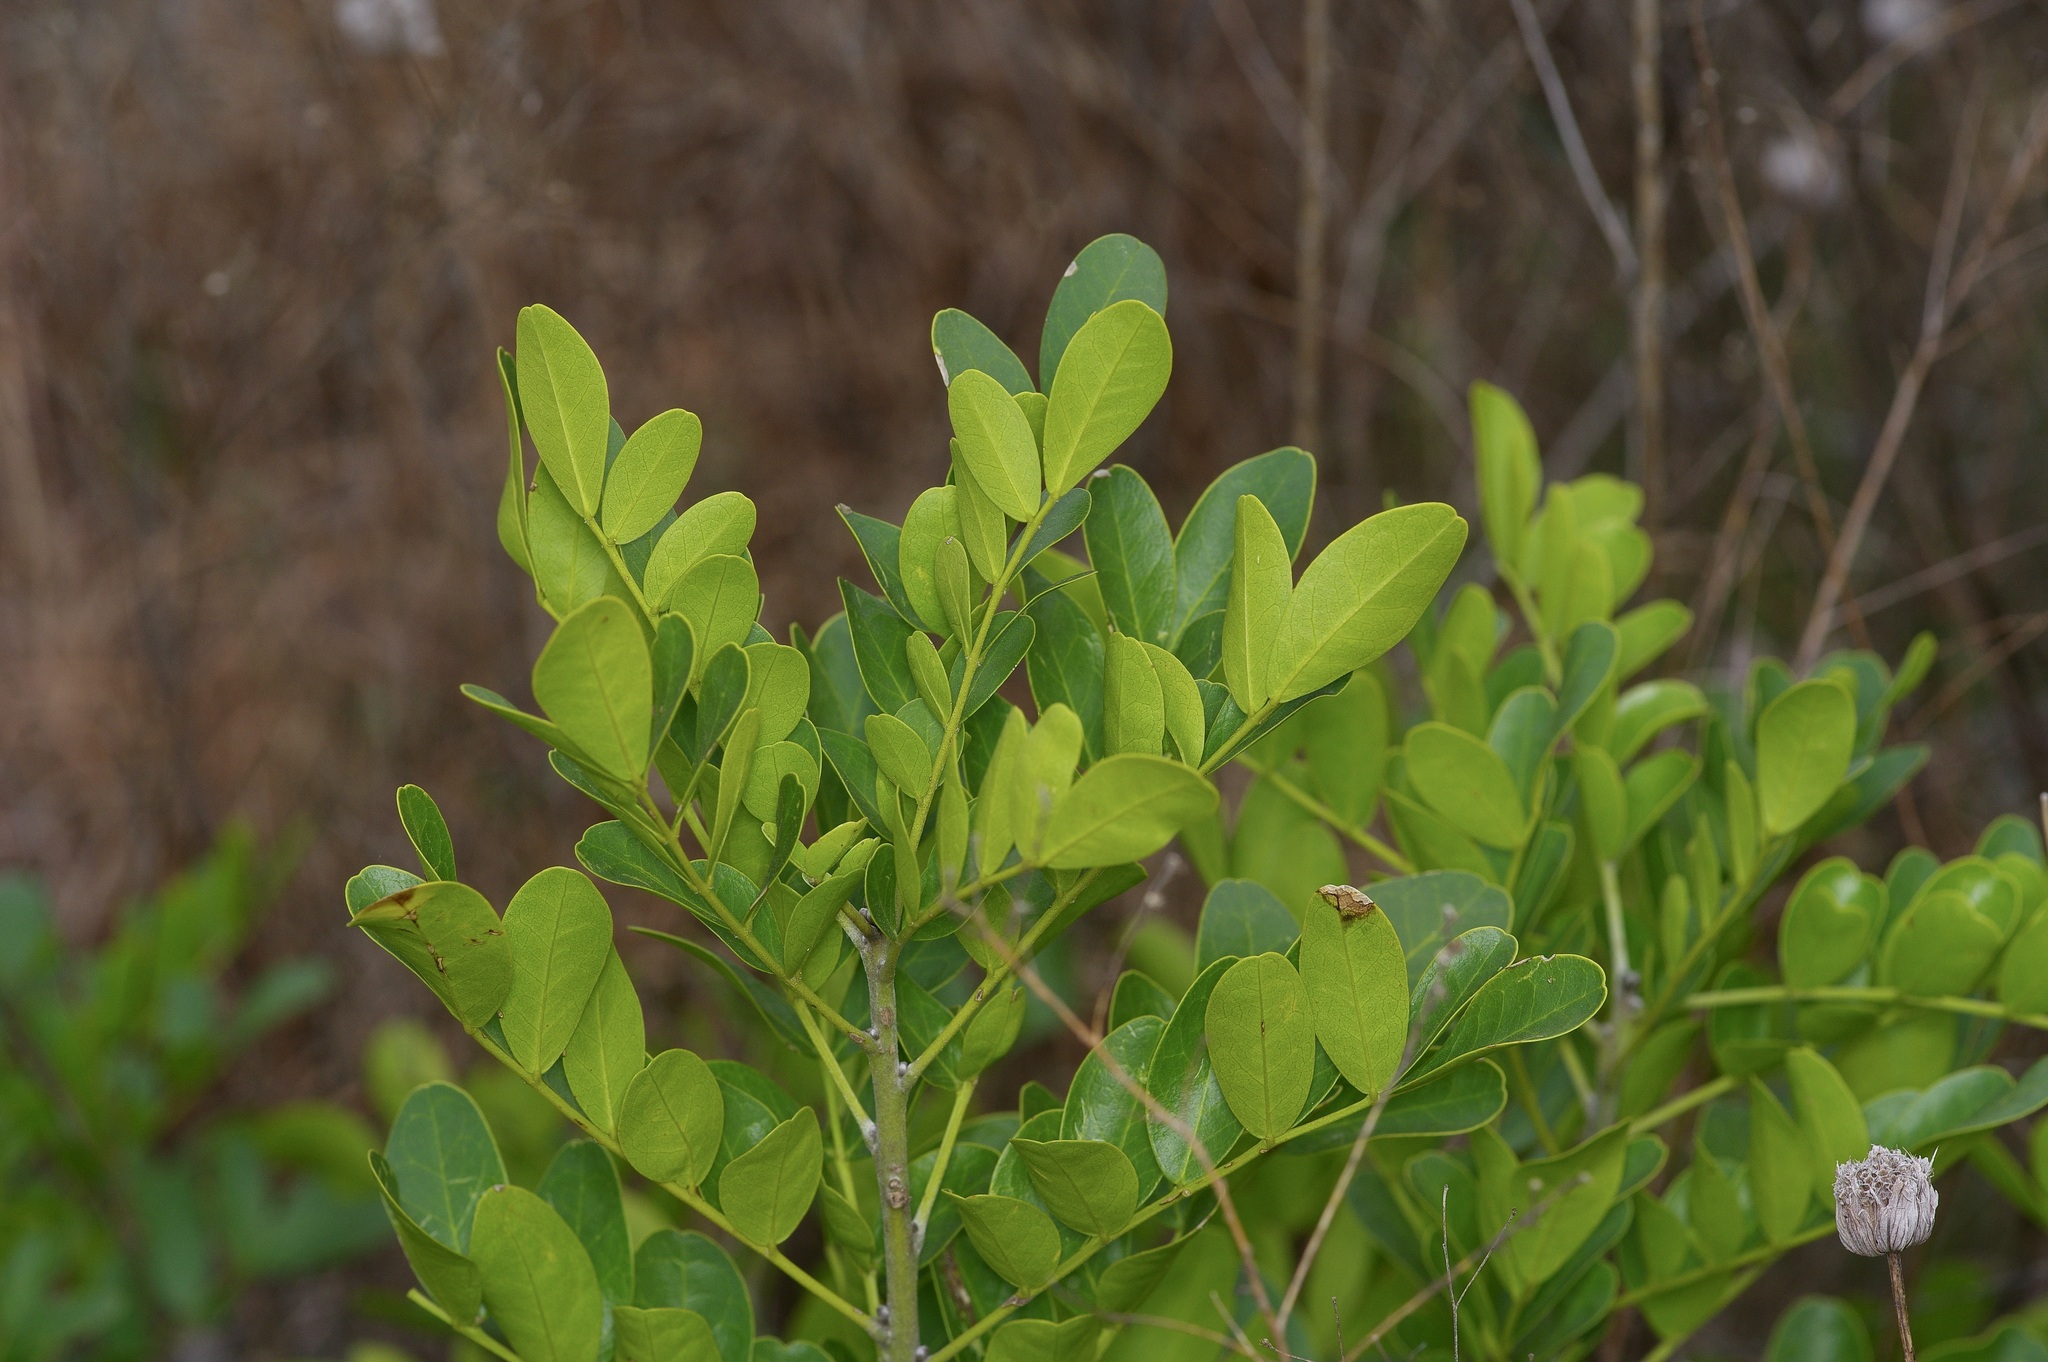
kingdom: Plantae
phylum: Tracheophyta
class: Magnoliopsida
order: Fabales
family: Fabaceae
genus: Dermatophyllum
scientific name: Dermatophyllum secundiflorum
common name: Texas-mountain-laurel
